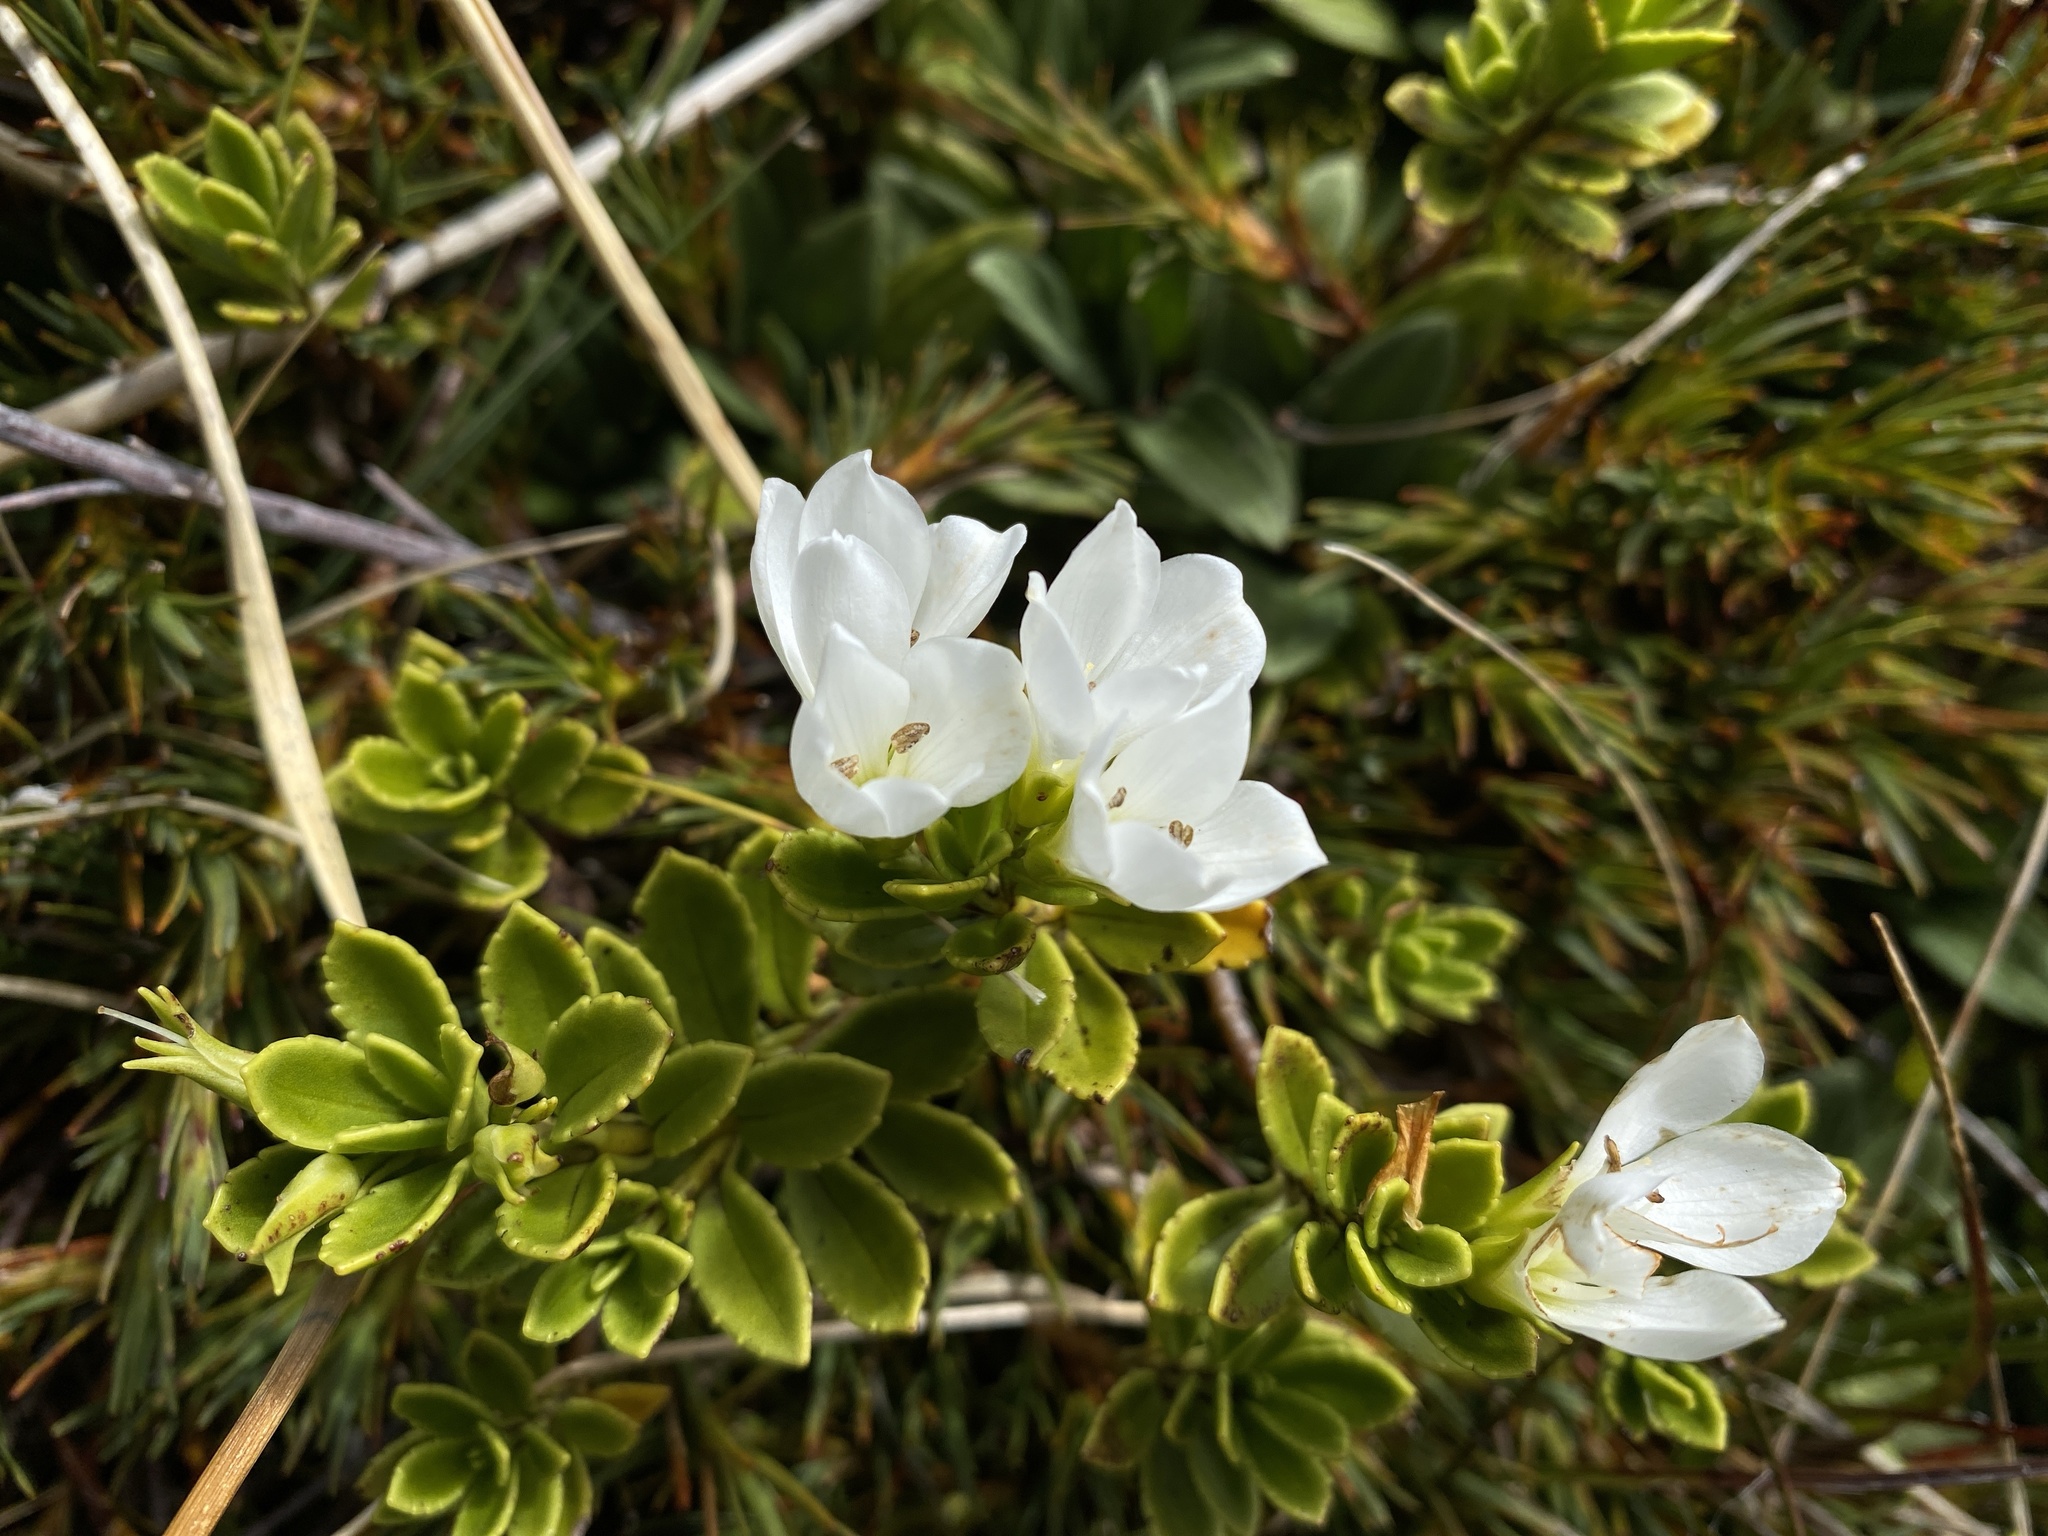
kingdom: Plantae
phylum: Tracheophyta
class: Magnoliopsida
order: Lamiales
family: Plantaginaceae
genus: Veronica
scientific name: Veronica macrantha
